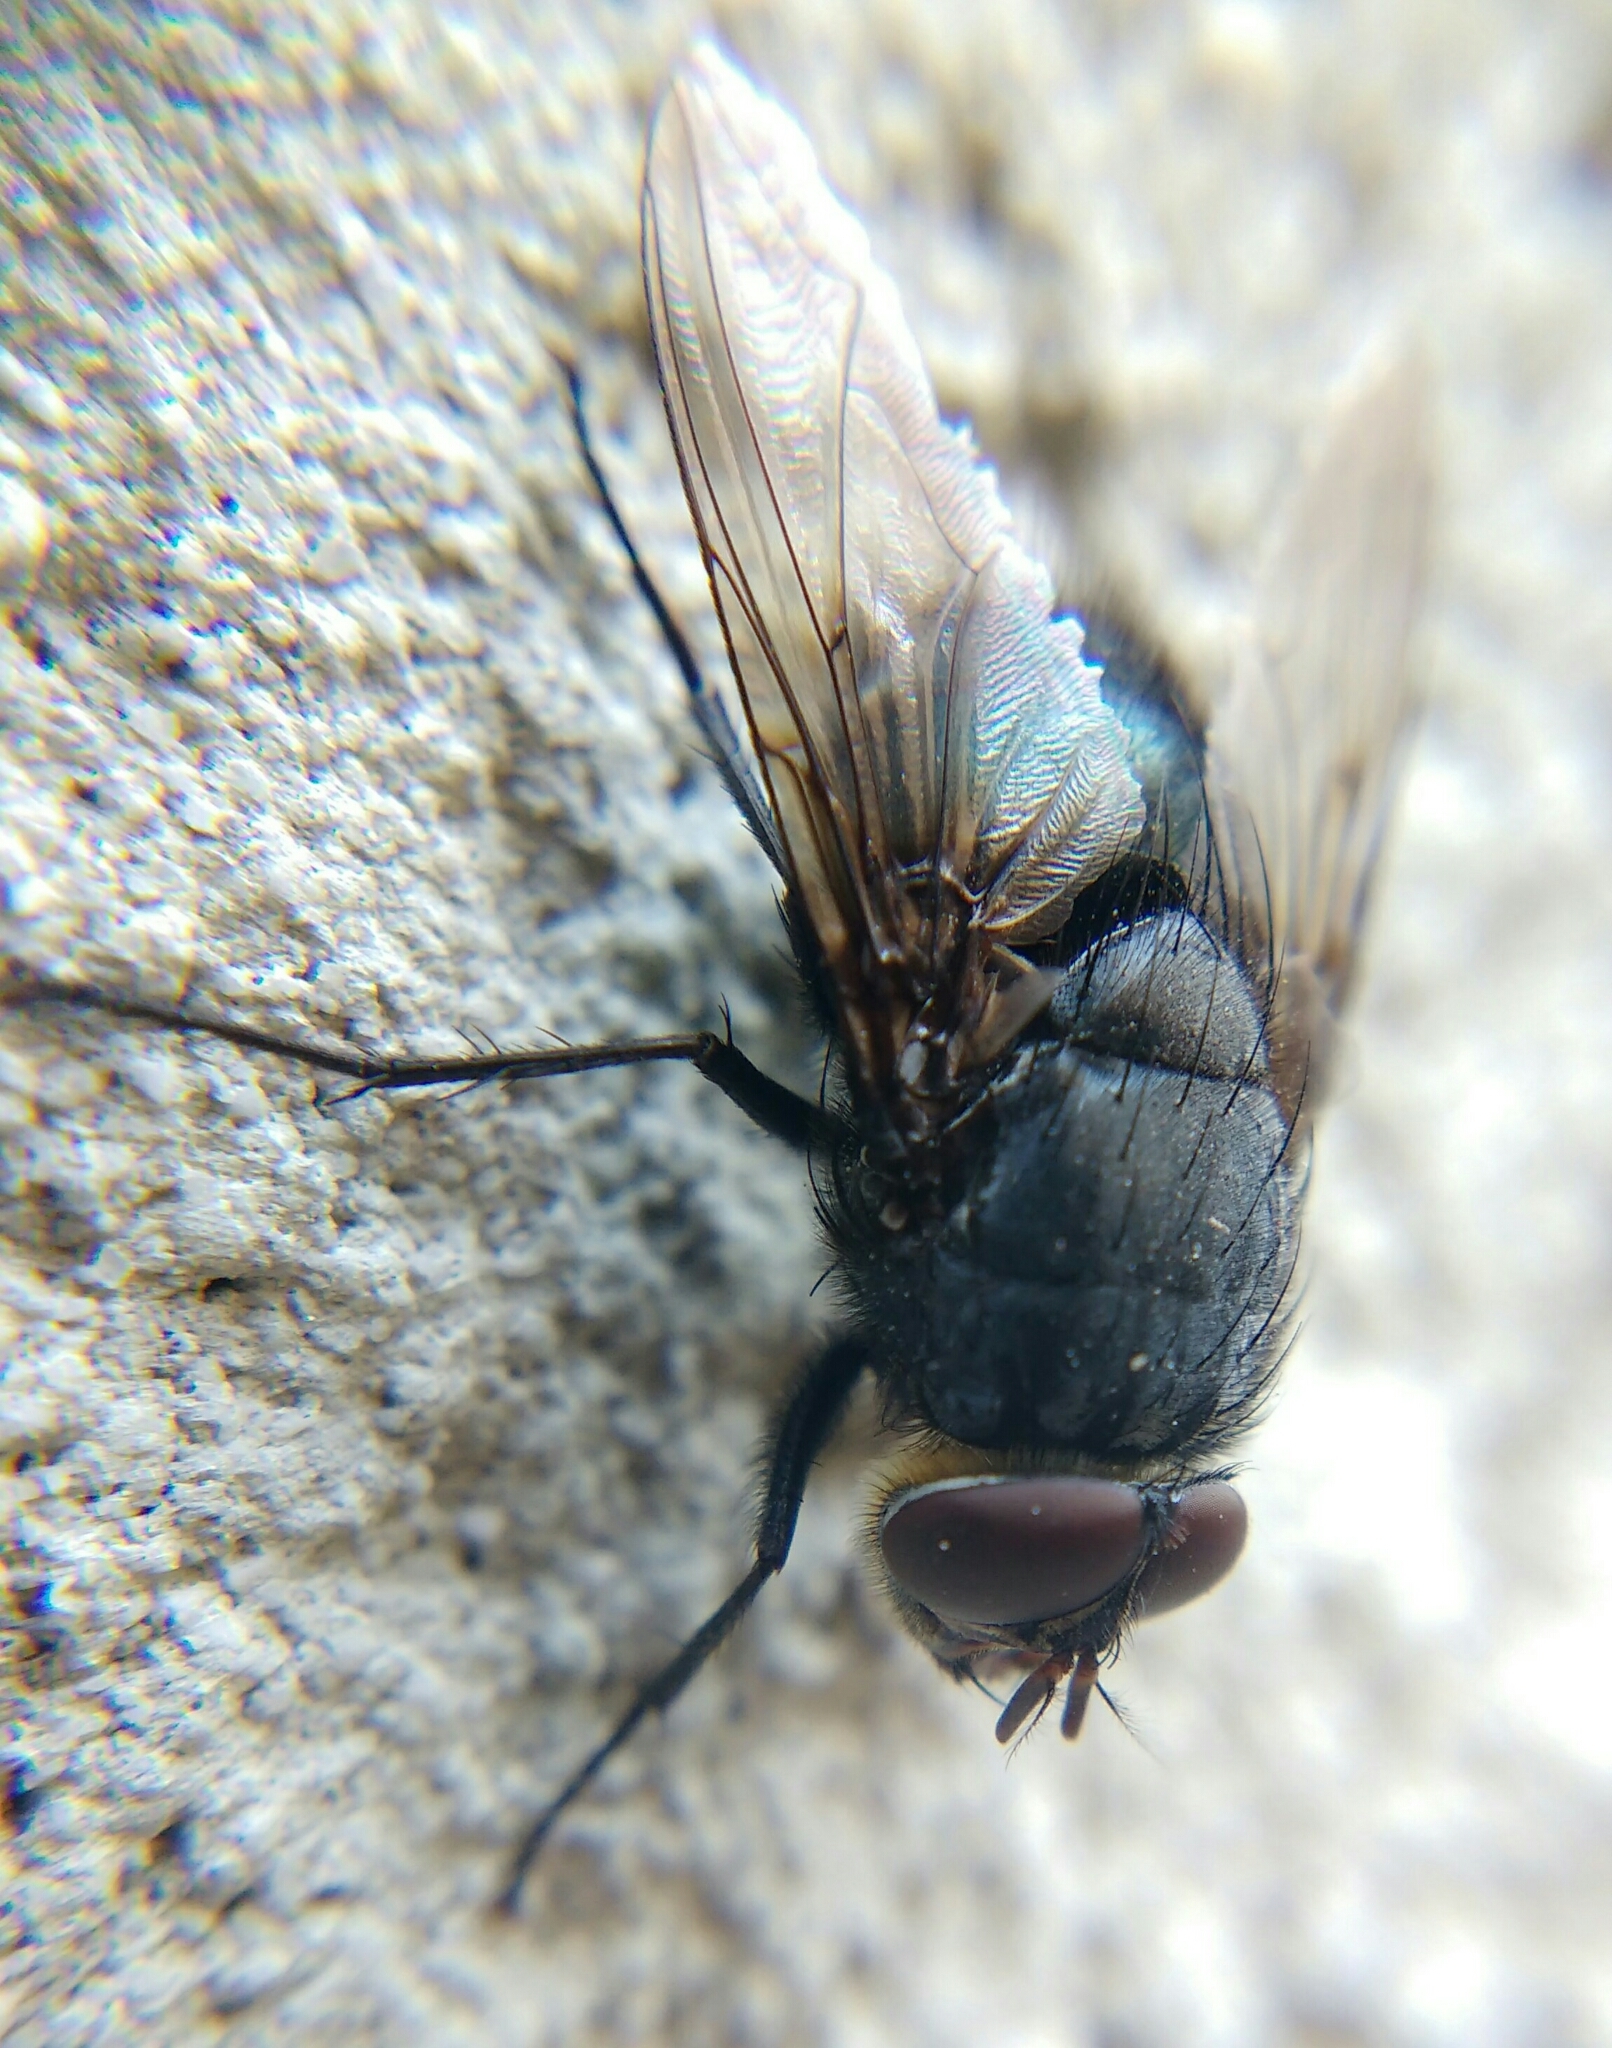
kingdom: Animalia
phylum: Arthropoda
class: Insecta
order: Diptera
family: Calliphoridae
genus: Calliphora
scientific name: Calliphora vomitoria
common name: Blue bottle fly
